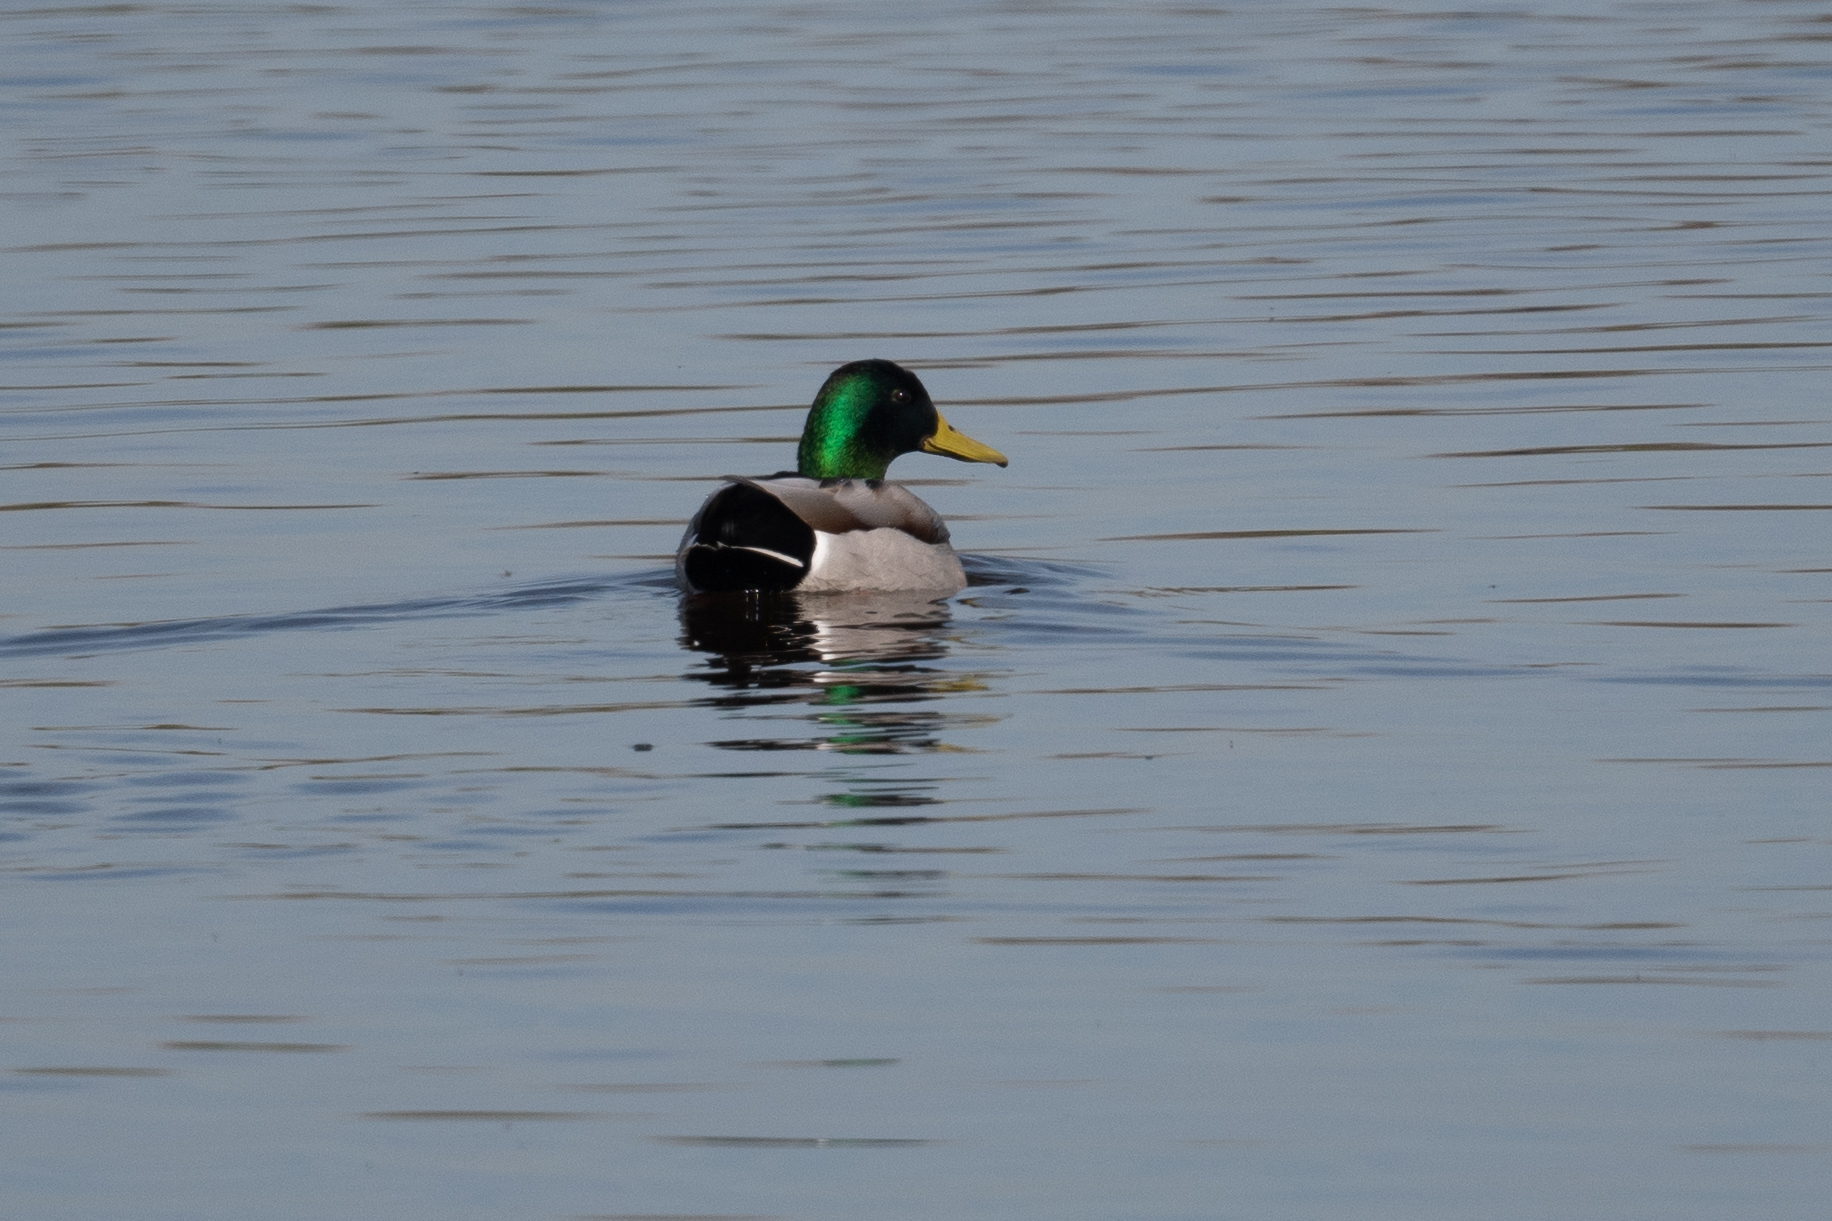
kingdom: Animalia
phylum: Chordata
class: Aves
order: Anseriformes
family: Anatidae
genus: Anas
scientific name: Anas platyrhynchos
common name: Mallard
